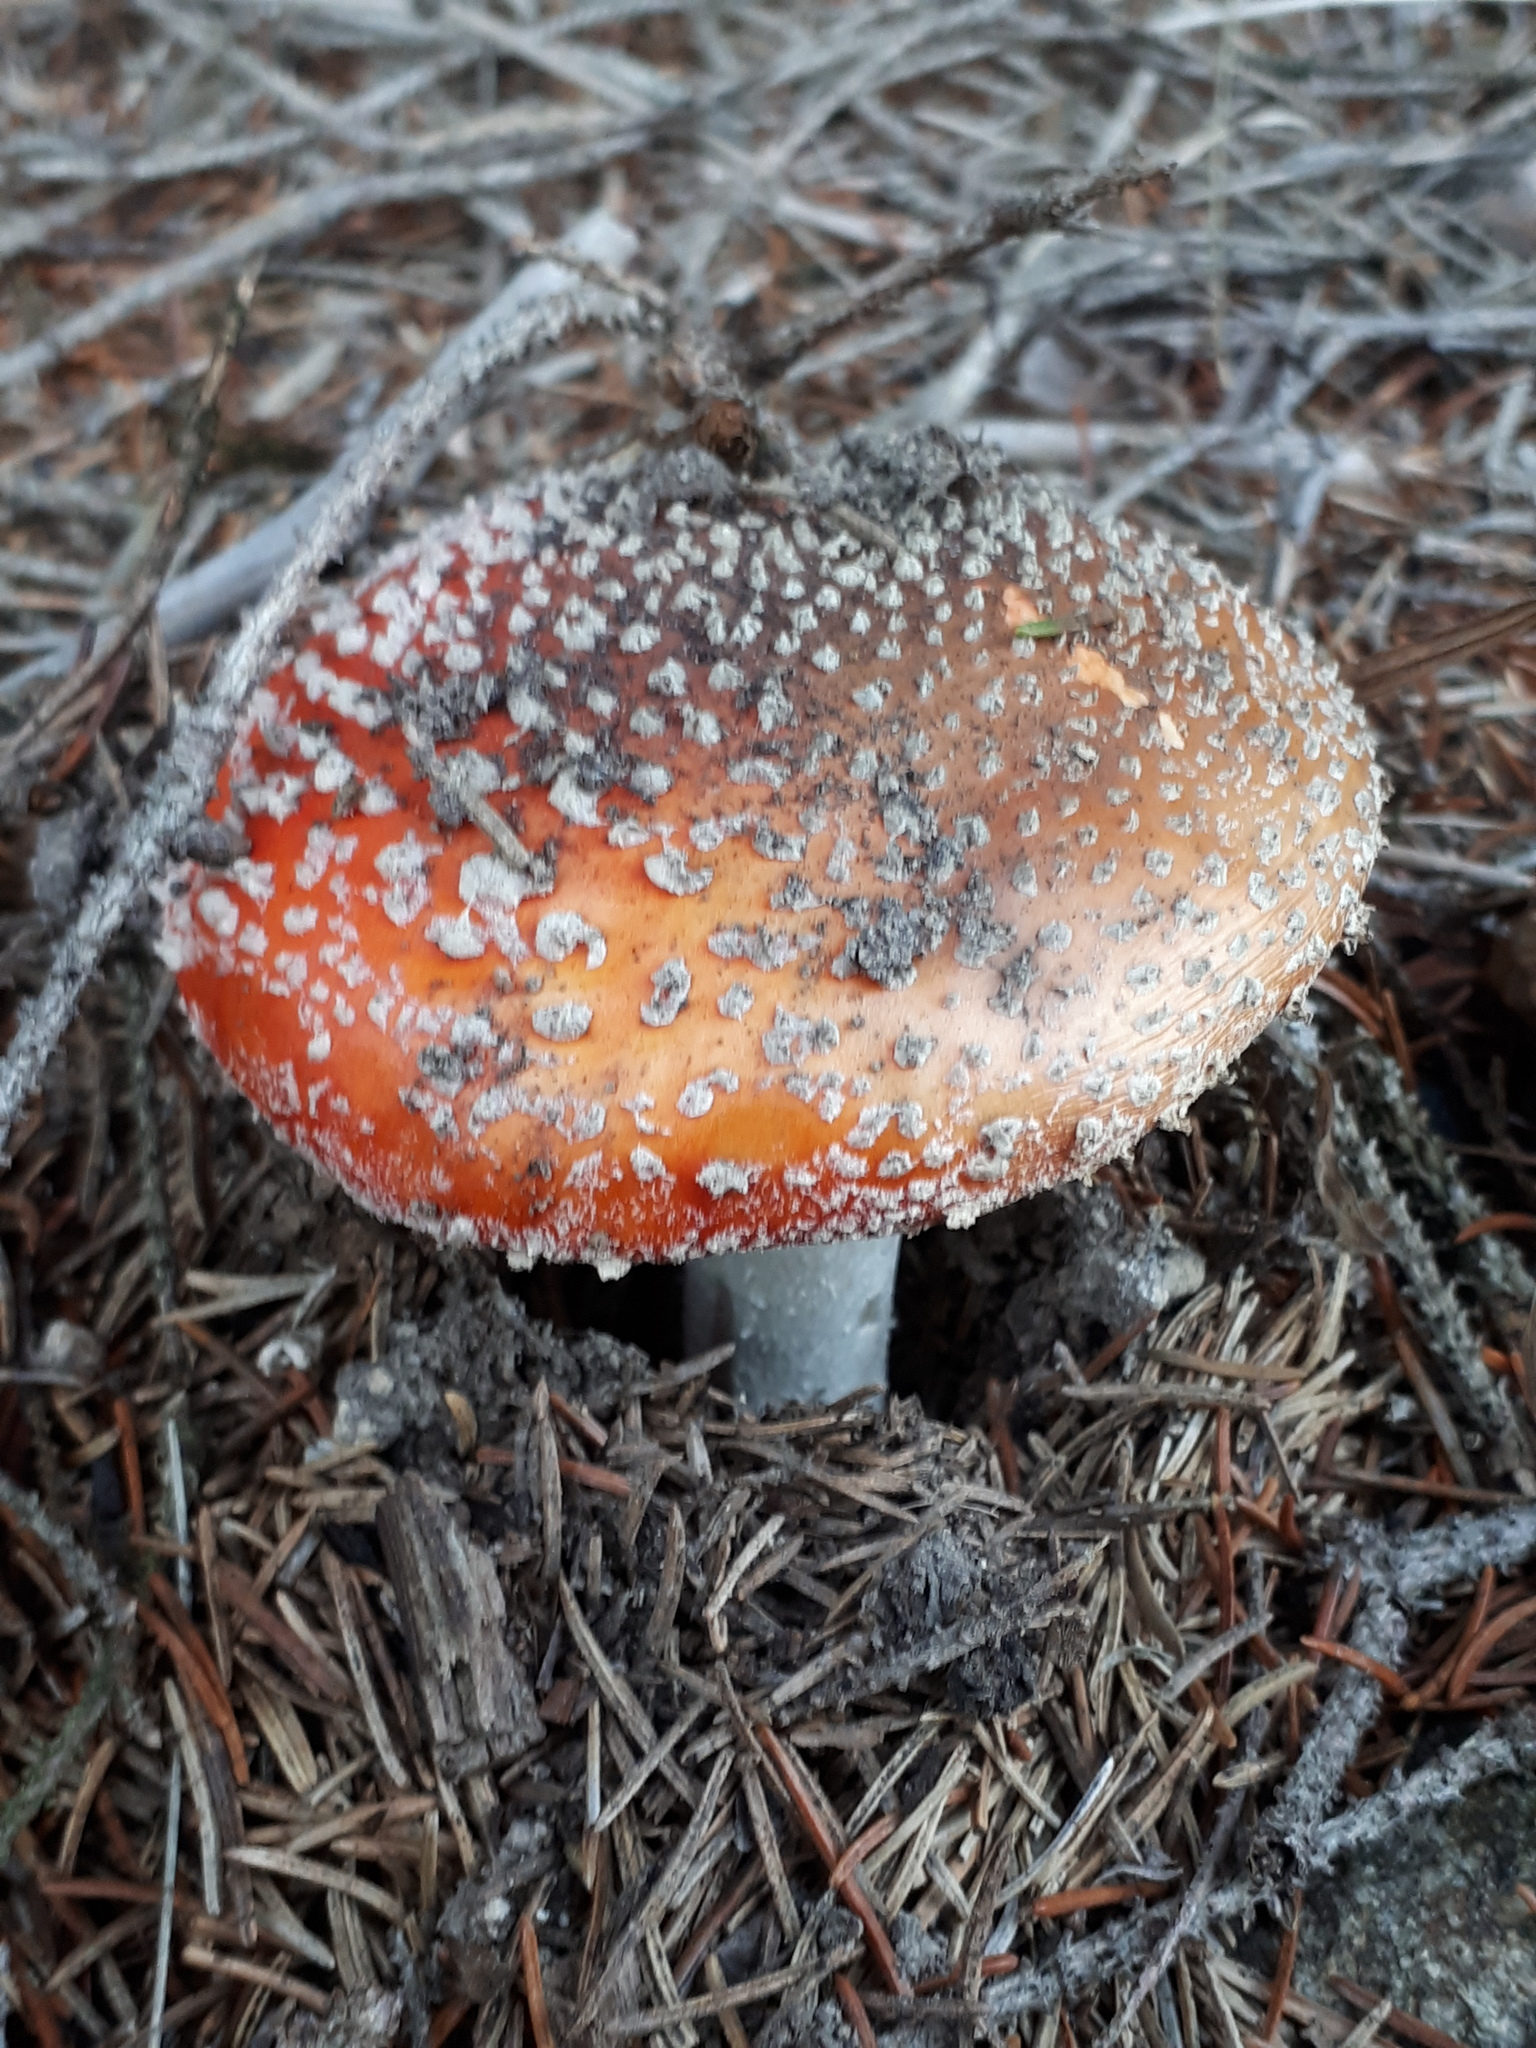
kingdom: Fungi
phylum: Basidiomycota
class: Agaricomycetes
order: Agaricales
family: Amanitaceae
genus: Amanita
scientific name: Amanita muscaria
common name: Fly agaric
